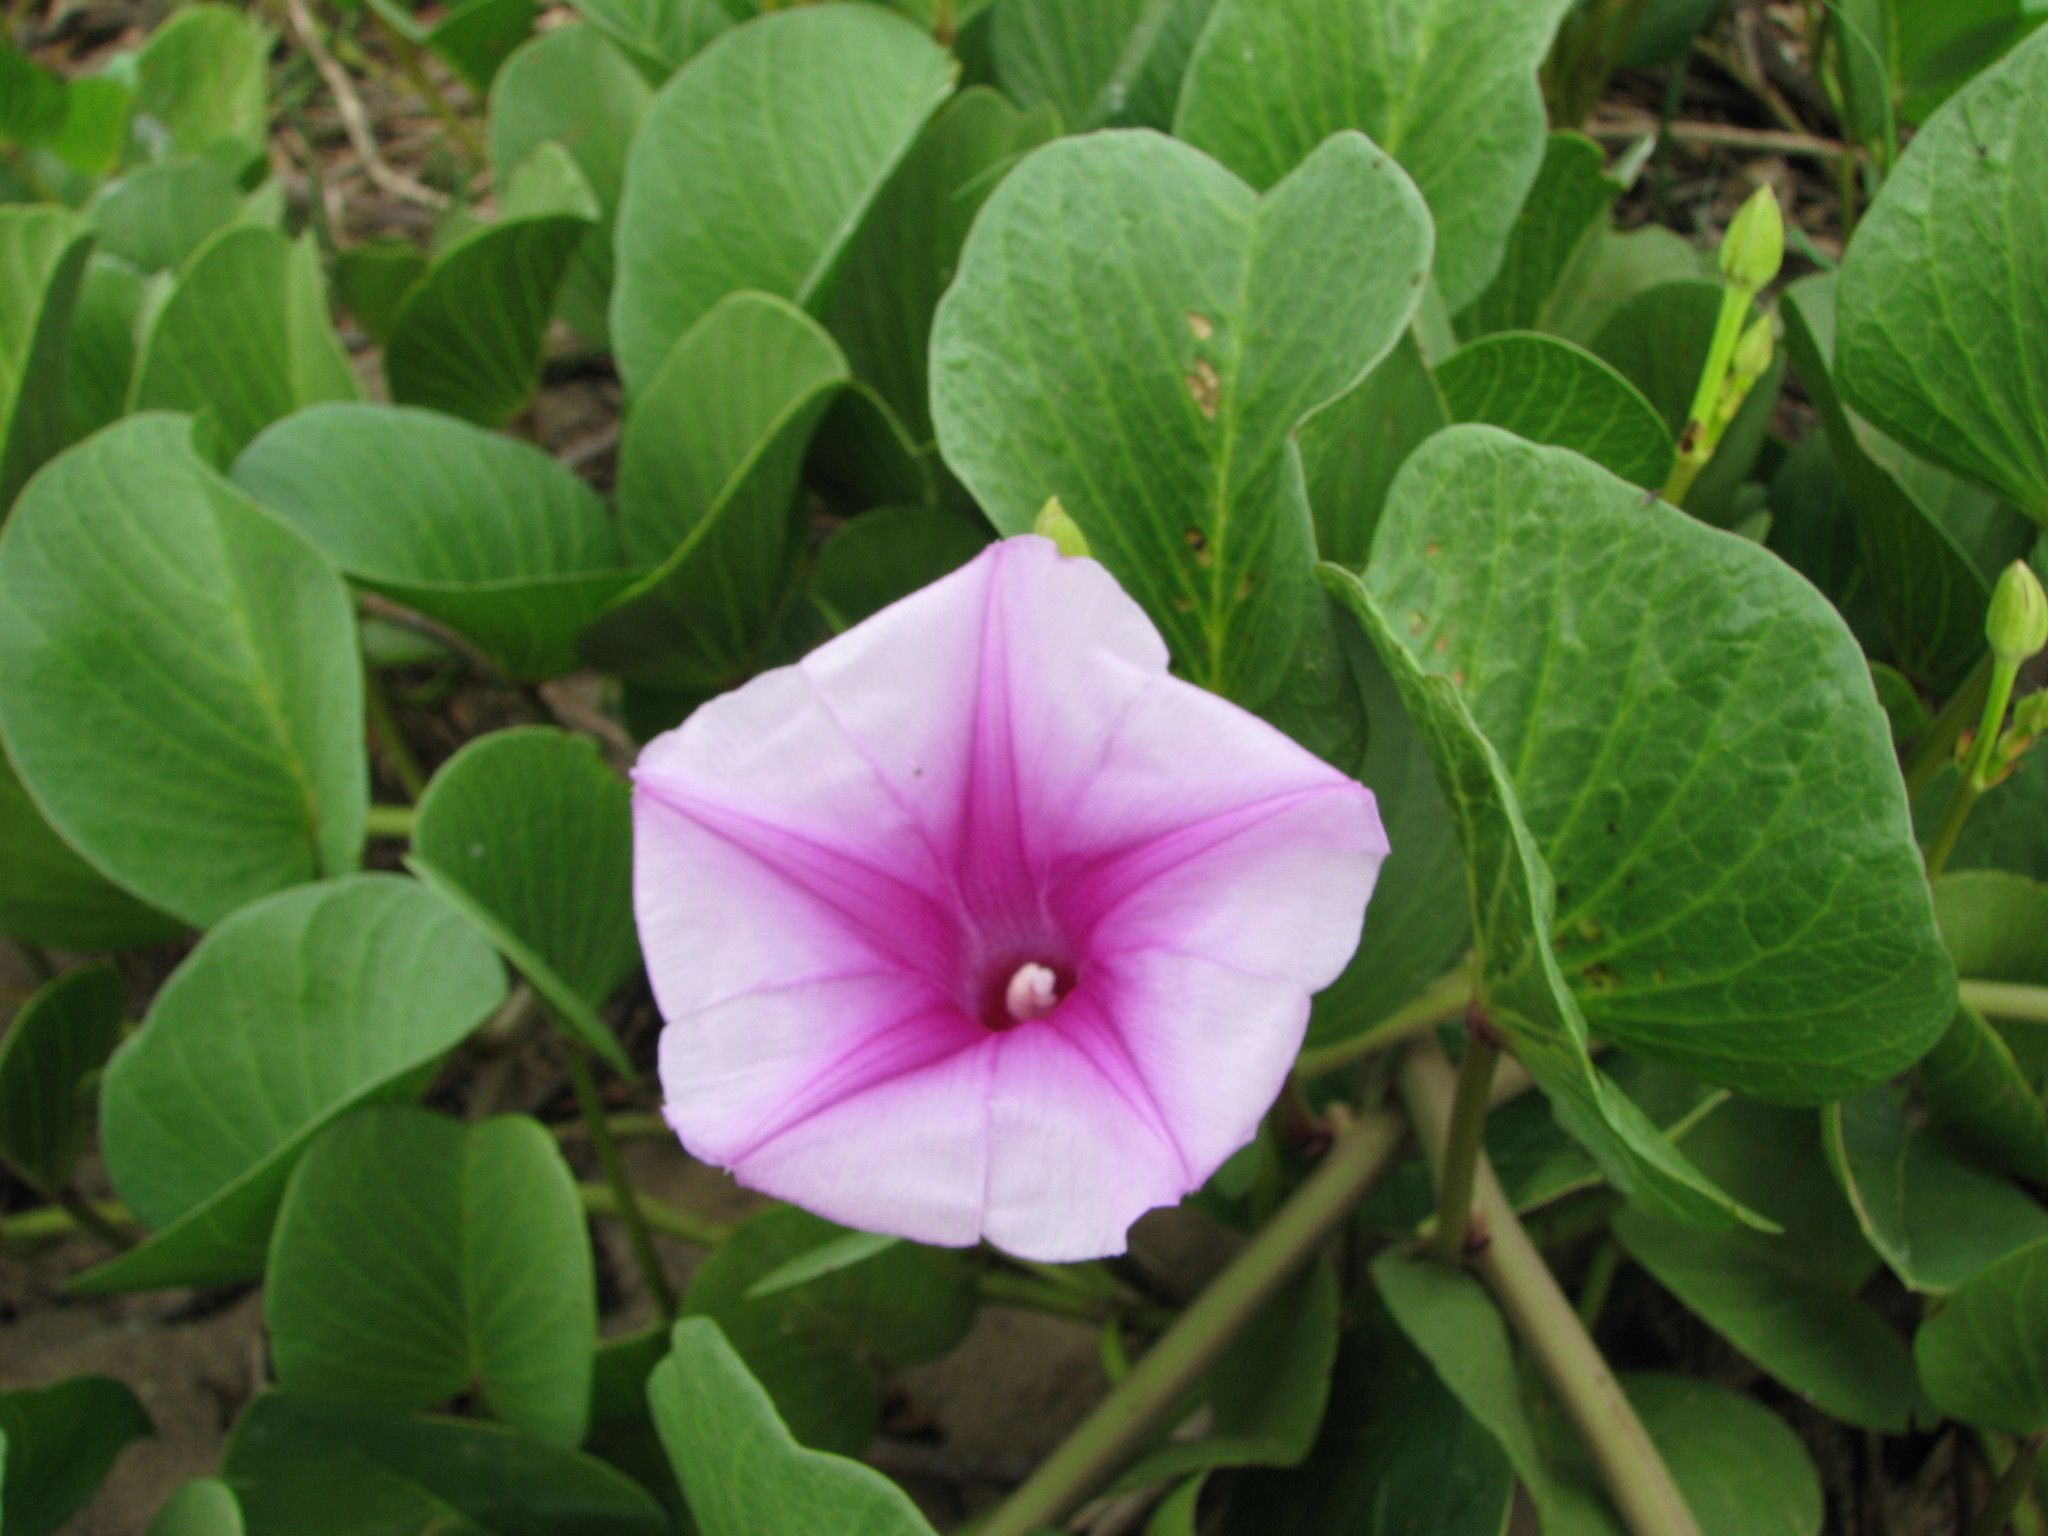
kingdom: Plantae
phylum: Tracheophyta
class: Magnoliopsida
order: Solanales
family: Convolvulaceae
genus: Ipomoea
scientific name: Ipomoea pes-caprae
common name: Beach morning glory
